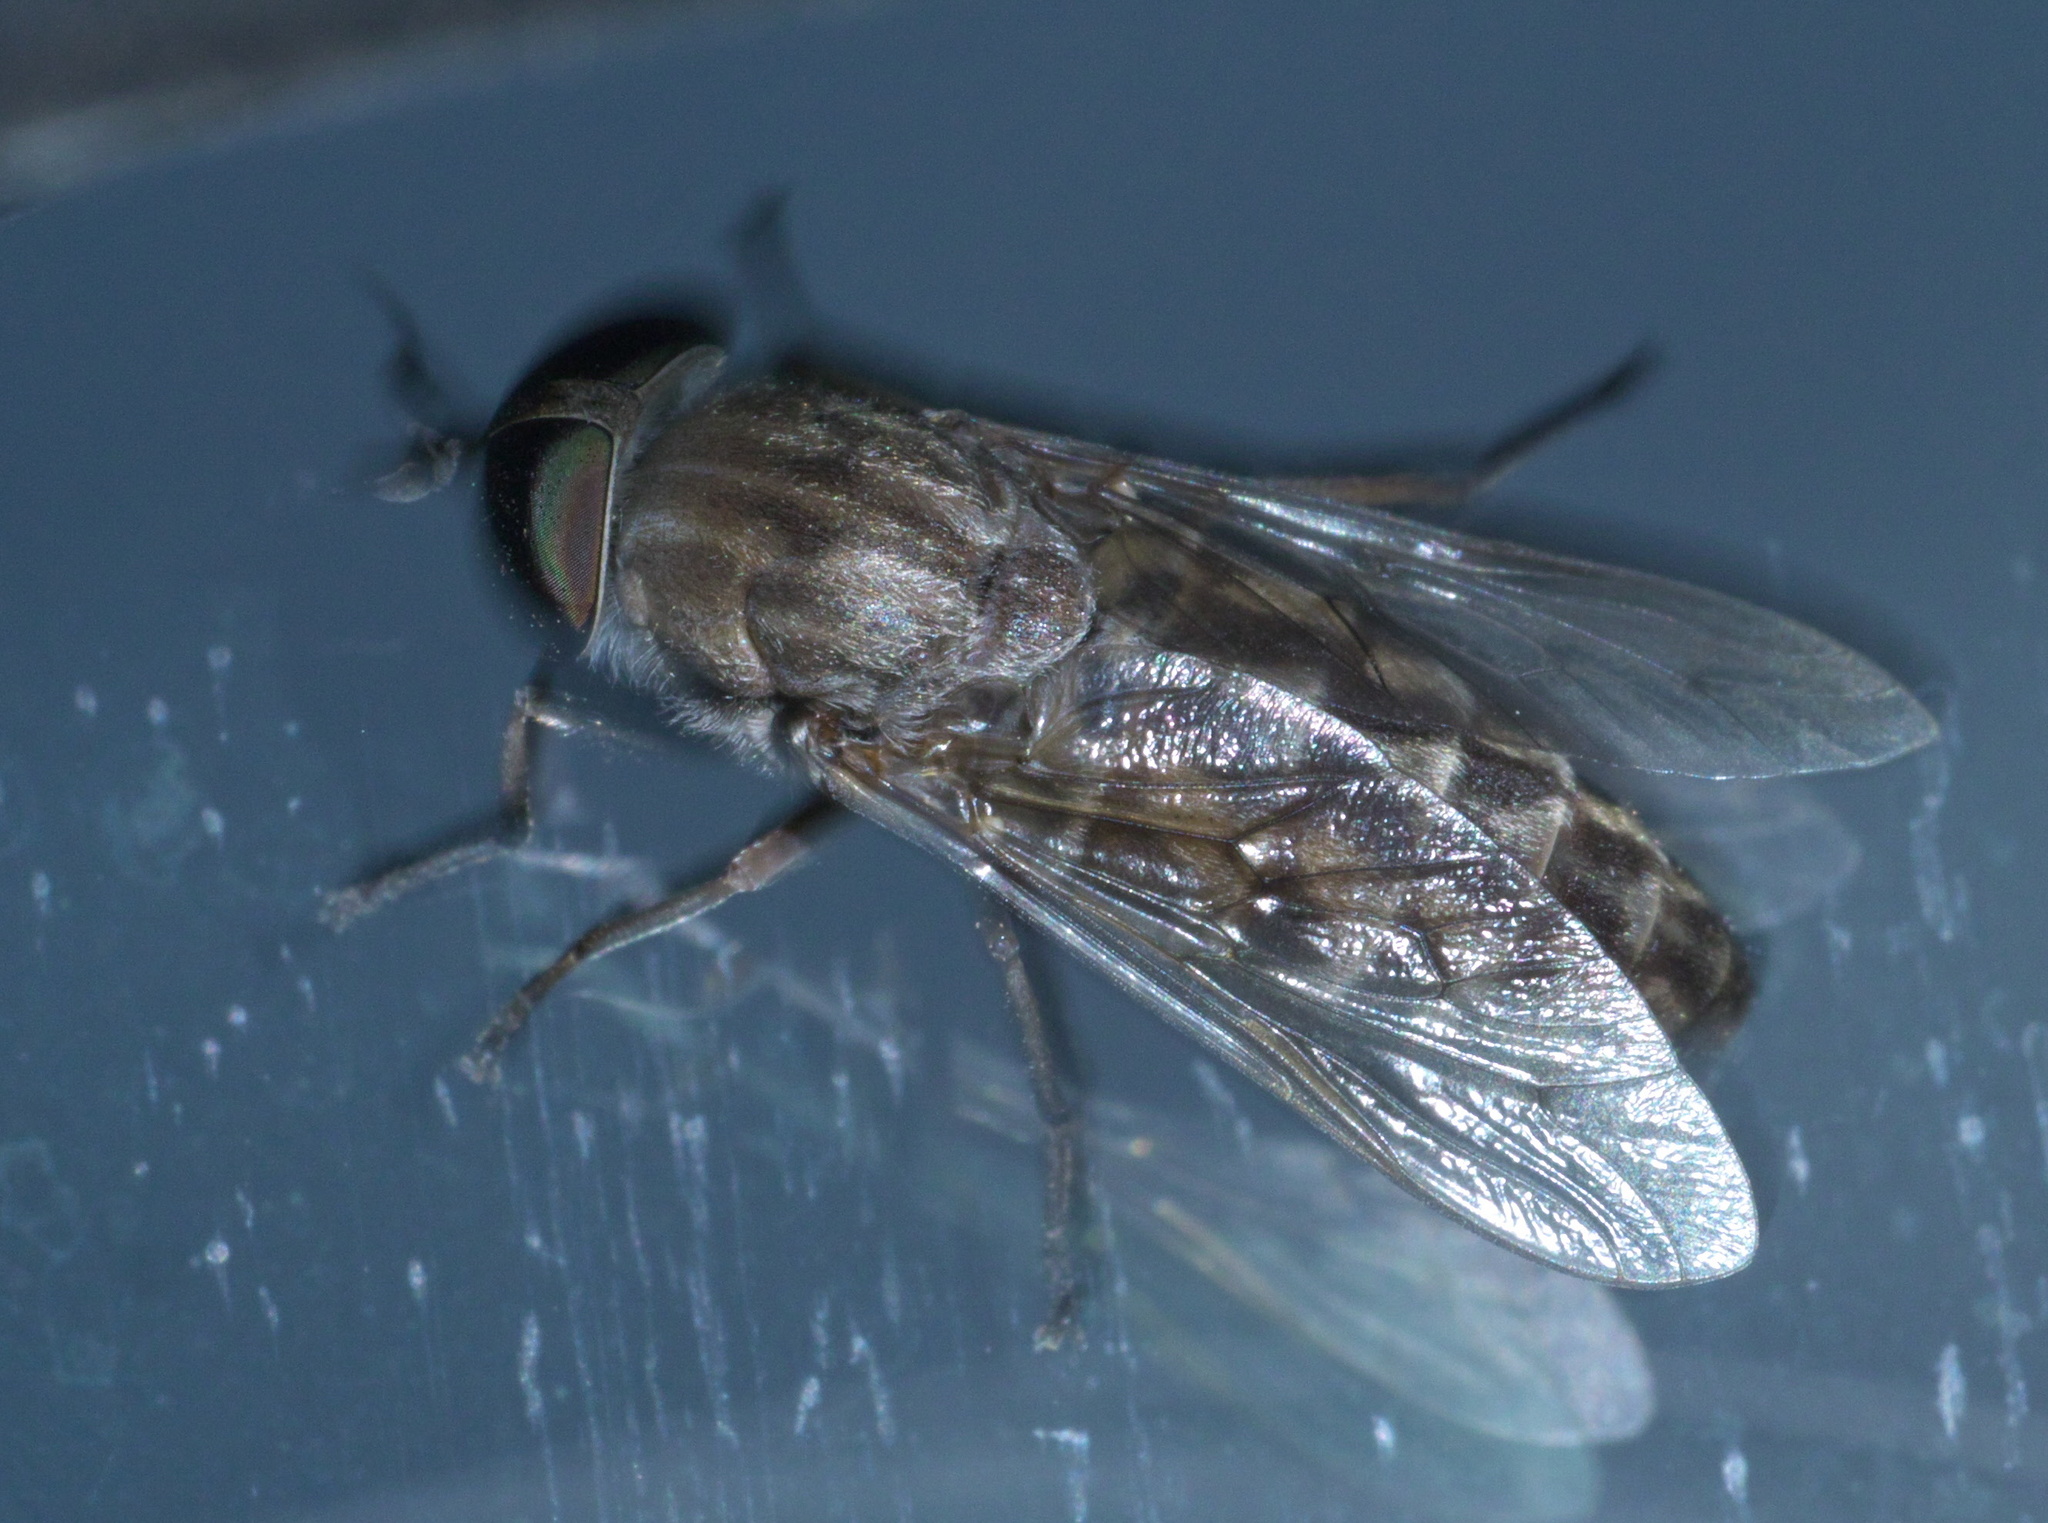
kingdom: Animalia
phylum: Arthropoda
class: Insecta
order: Diptera
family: Tabanidae
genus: Tabanus
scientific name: Tabanus abactor
